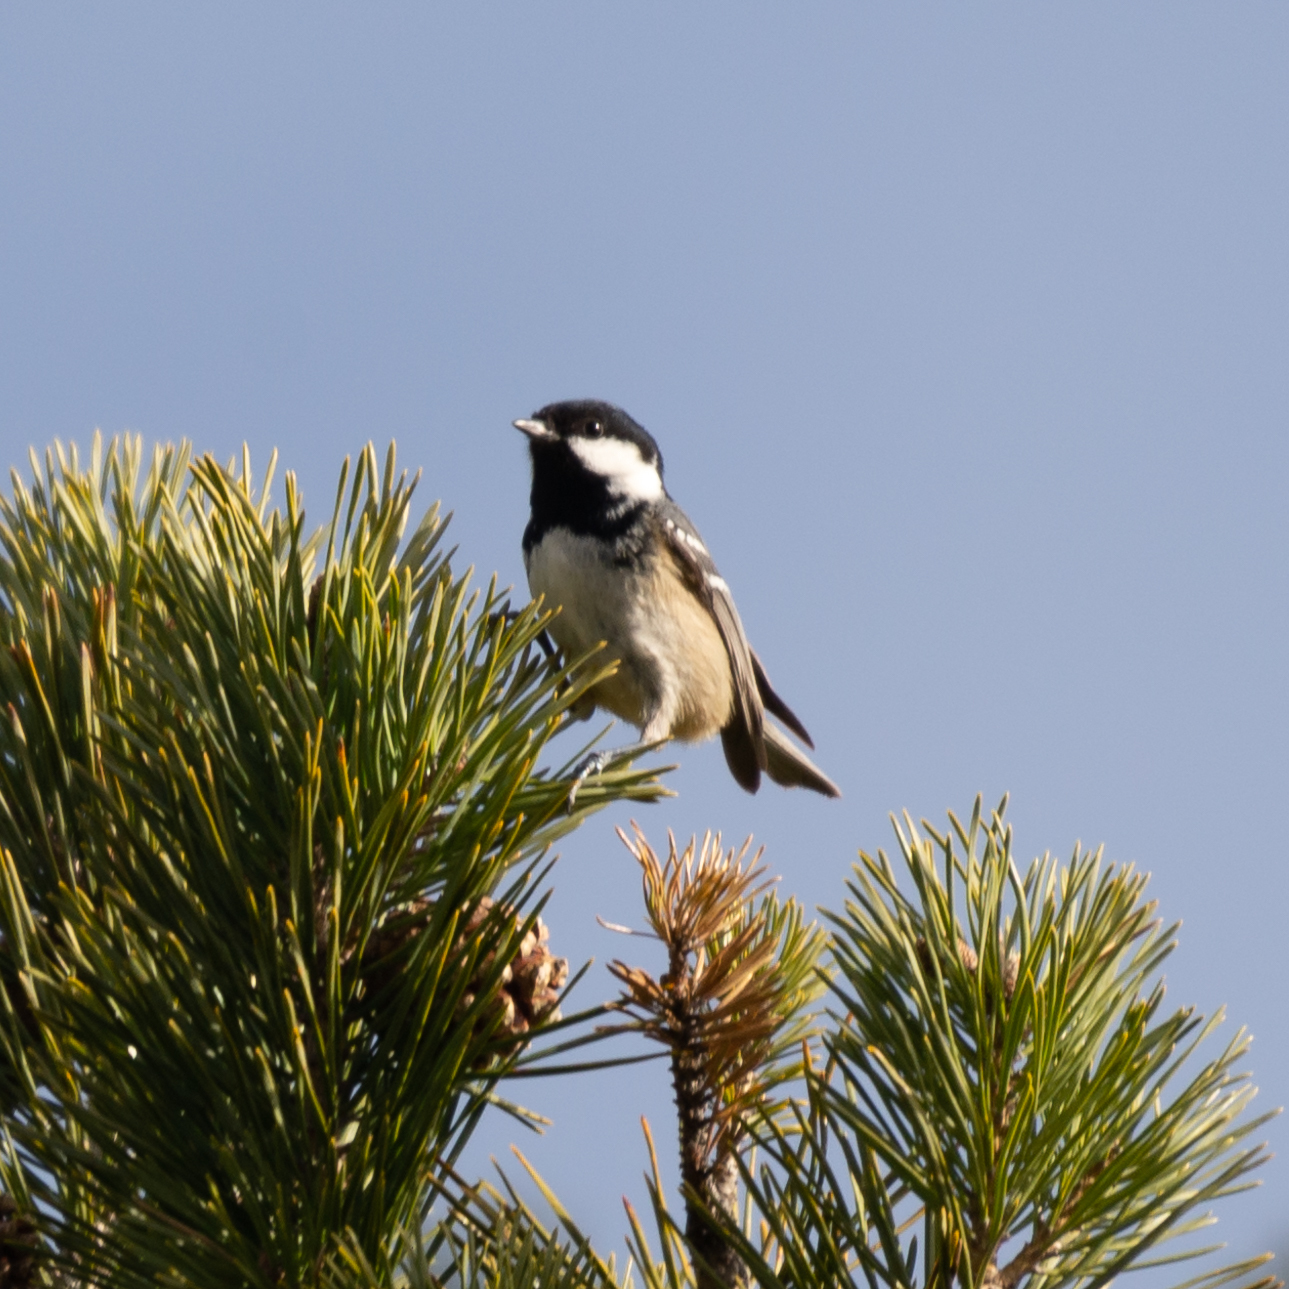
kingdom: Animalia
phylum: Chordata
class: Aves
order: Passeriformes
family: Paridae
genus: Periparus
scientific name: Periparus ater
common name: Coal tit
